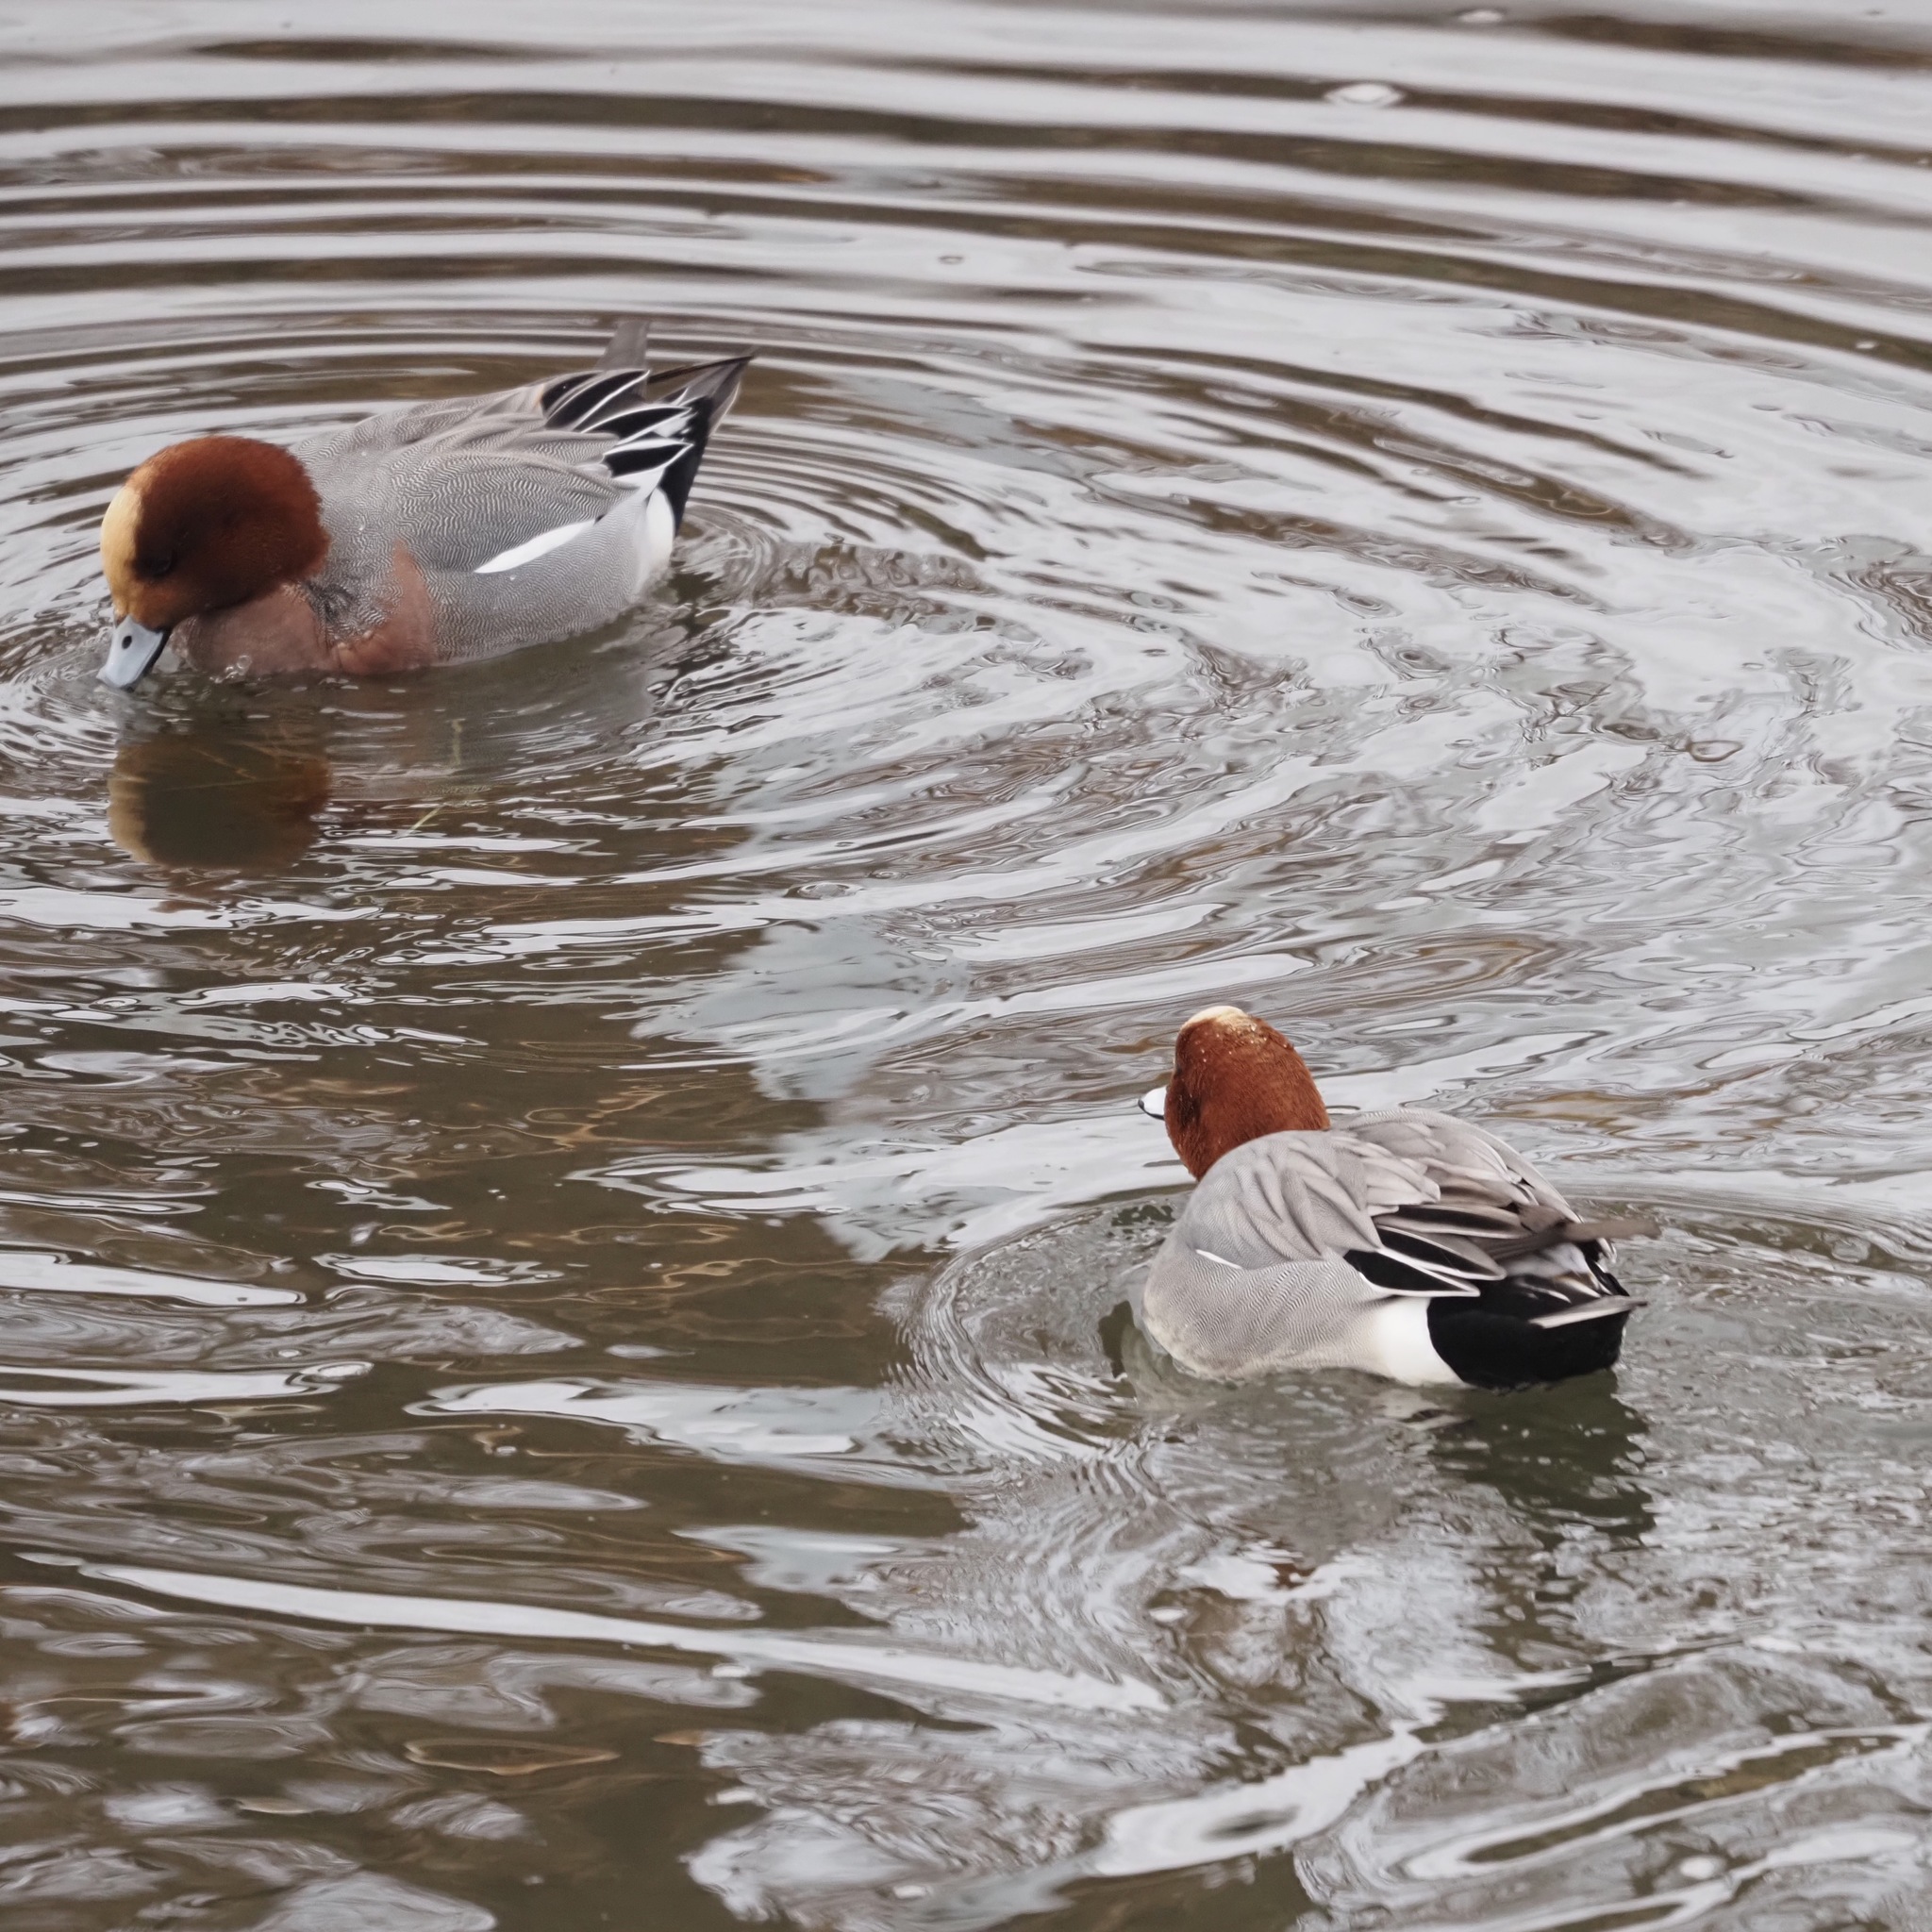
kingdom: Animalia
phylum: Chordata
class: Aves
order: Anseriformes
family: Anatidae
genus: Mareca
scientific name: Mareca penelope
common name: Eurasian wigeon
